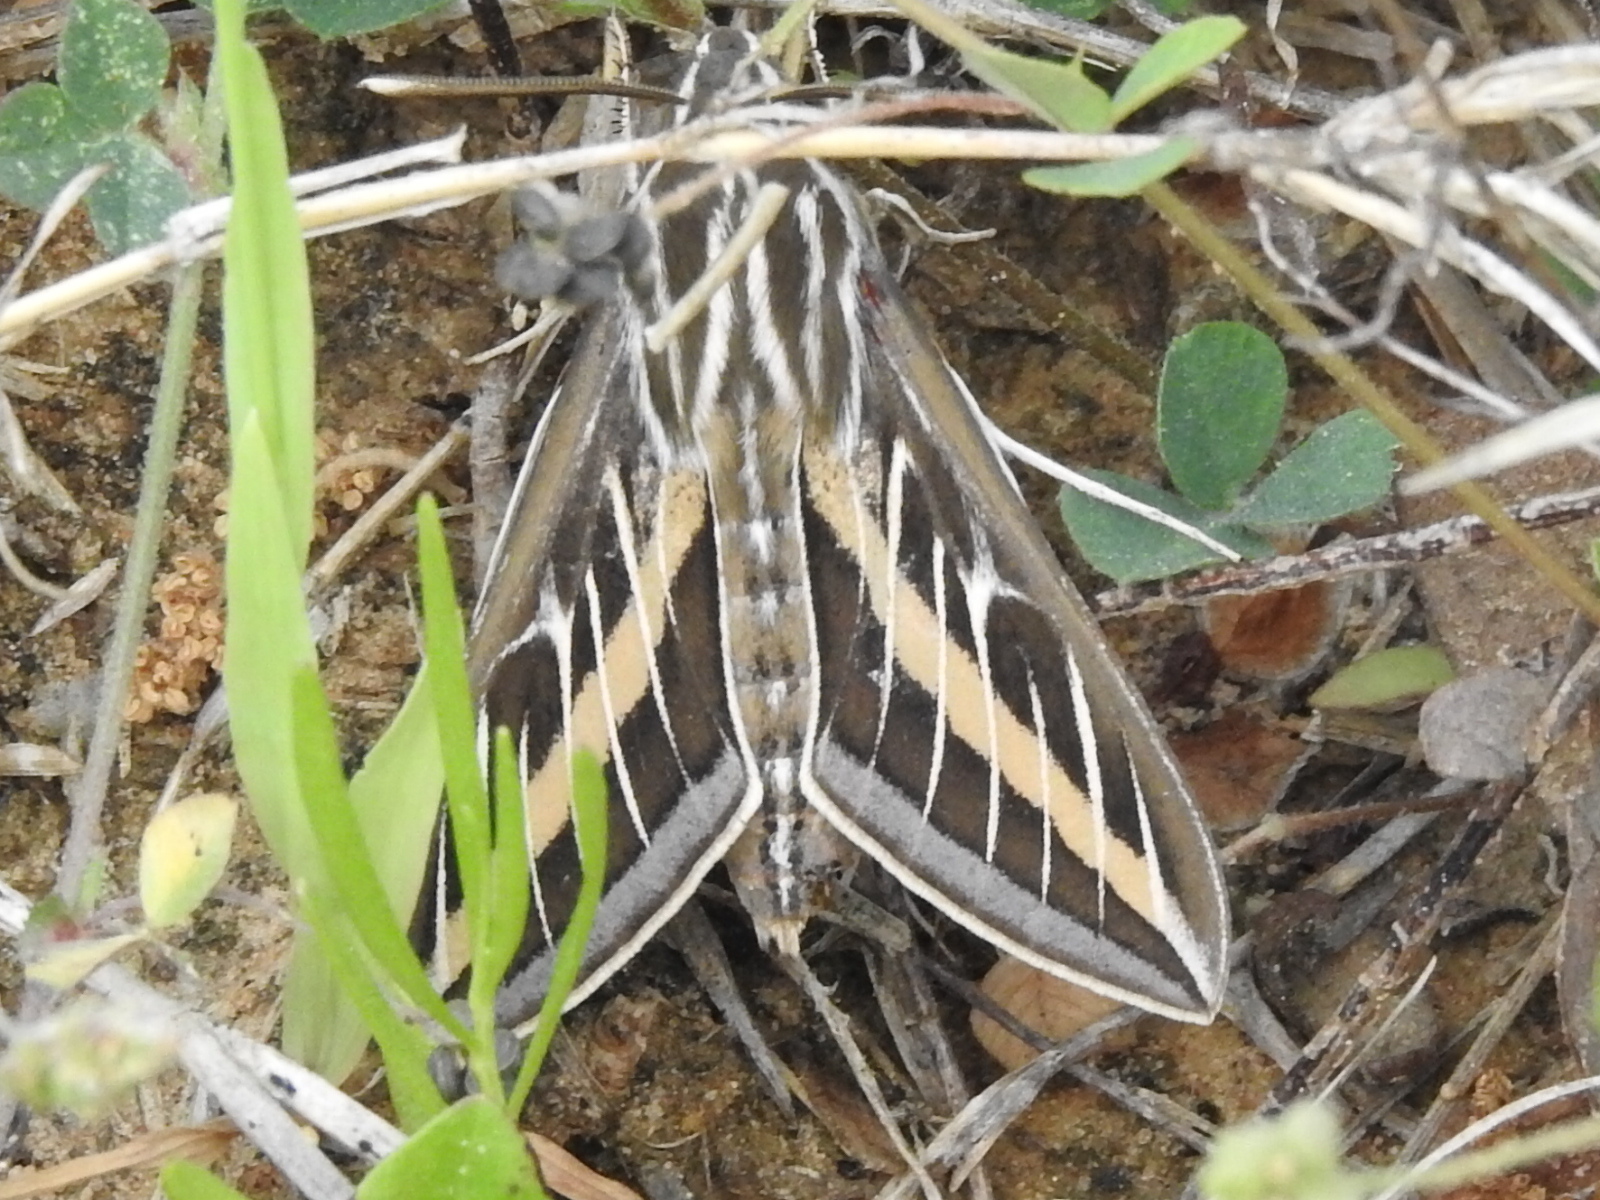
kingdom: Animalia
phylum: Arthropoda
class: Insecta
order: Lepidoptera
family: Sphingidae
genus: Hyles
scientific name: Hyles lineata
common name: White-lined sphinx
